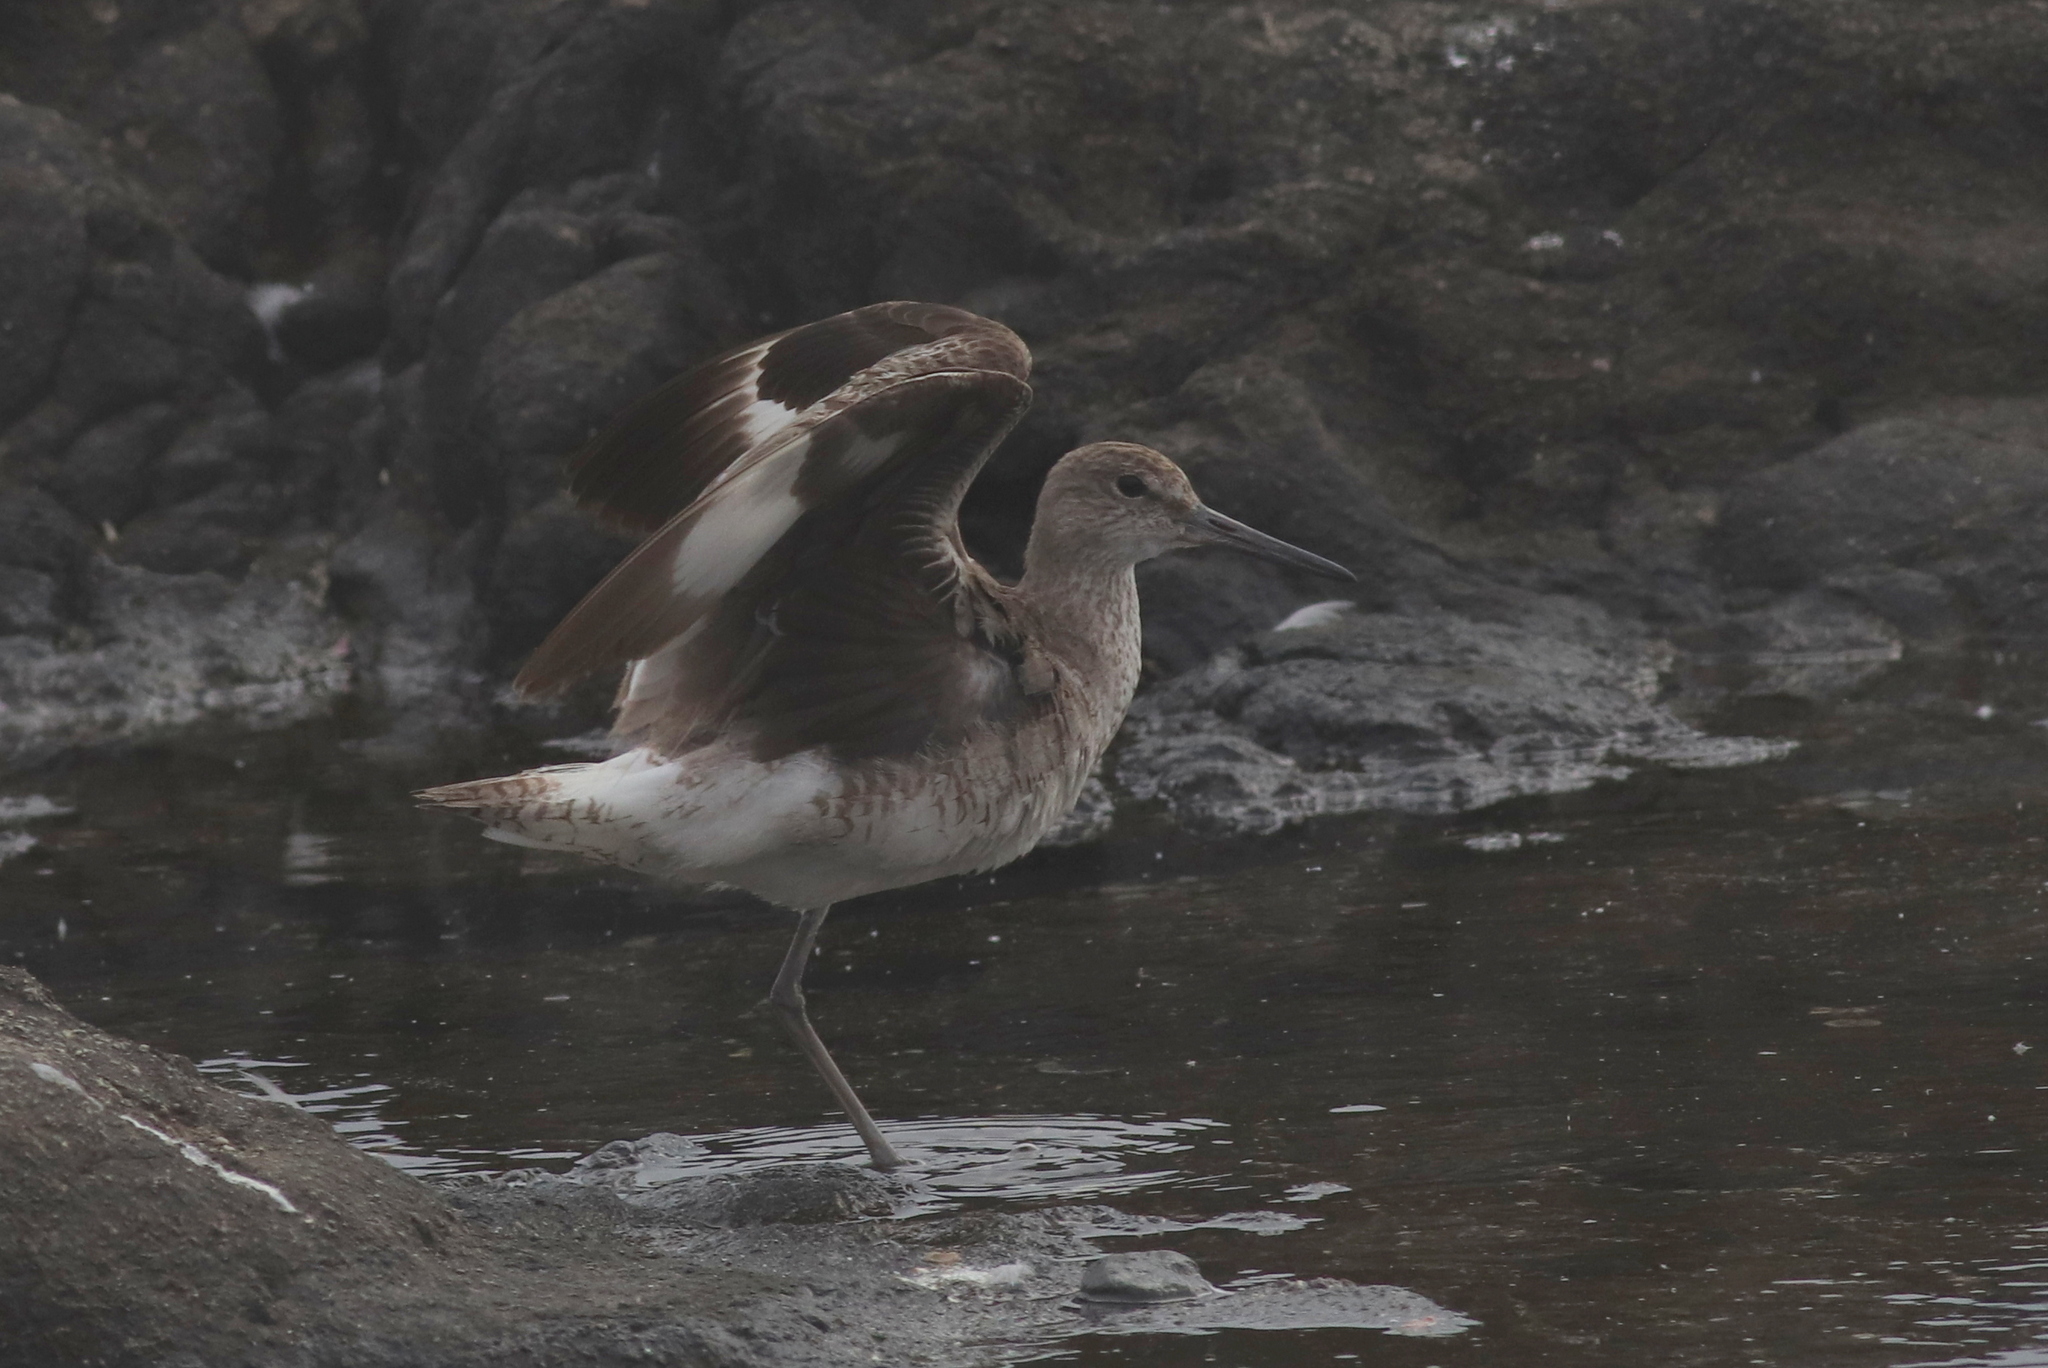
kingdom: Animalia
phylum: Chordata
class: Aves
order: Charadriiformes
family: Scolopacidae
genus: Tringa
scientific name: Tringa semipalmata
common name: Willet
